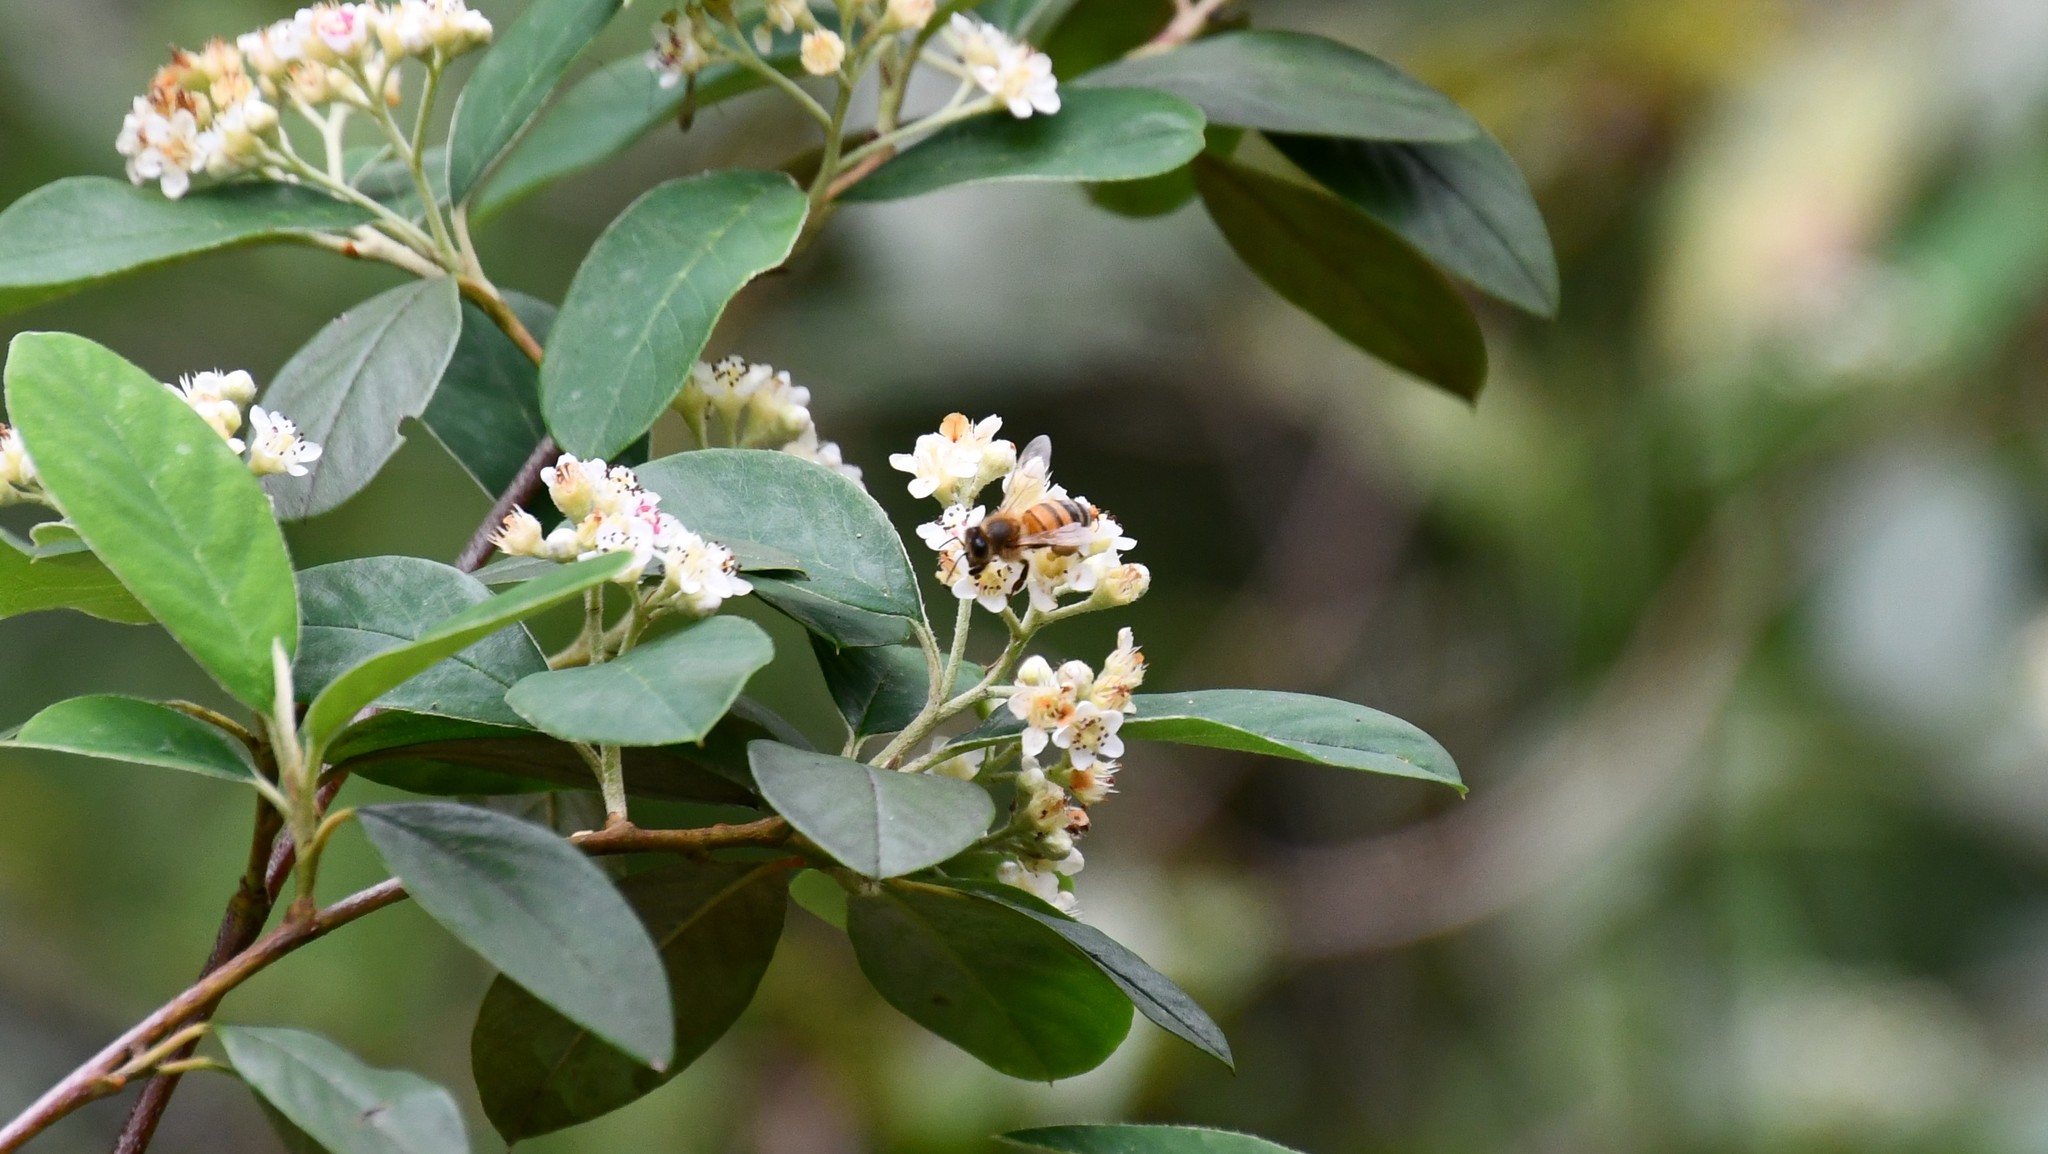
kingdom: Animalia
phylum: Arthropoda
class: Insecta
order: Hymenoptera
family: Apidae
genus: Apis
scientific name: Apis mellifera
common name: Honey bee
